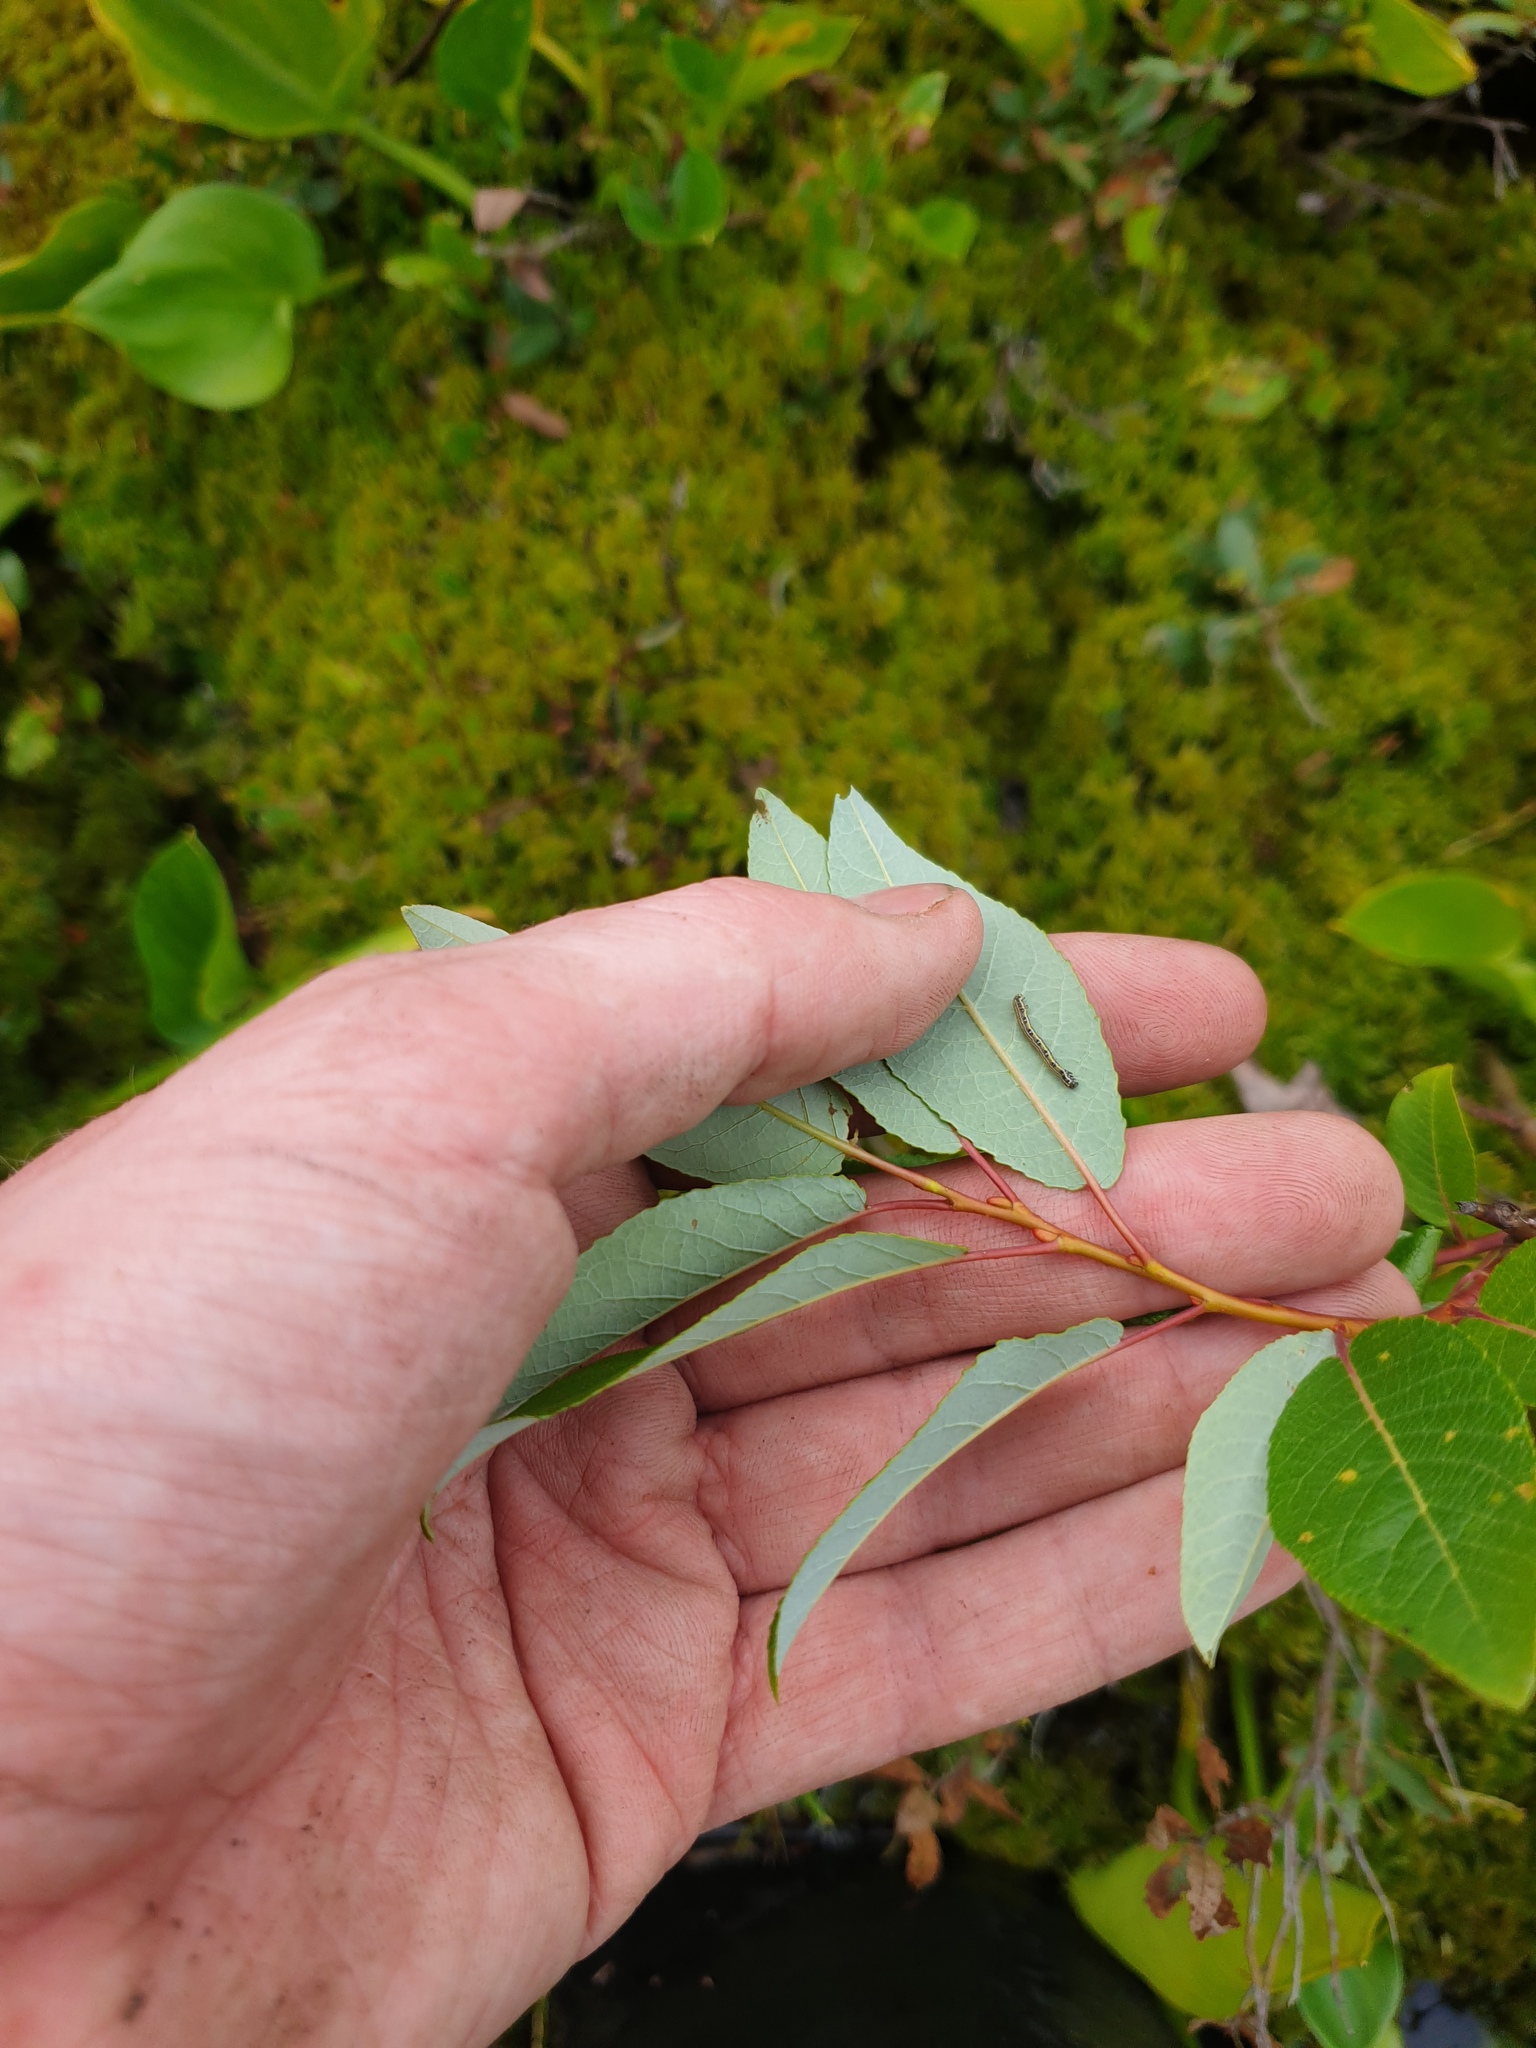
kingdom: Plantae
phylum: Tracheophyta
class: Magnoliopsida
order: Malpighiales
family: Salicaceae
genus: Salix
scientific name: Salix pyrifolia
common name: Balsam willow
